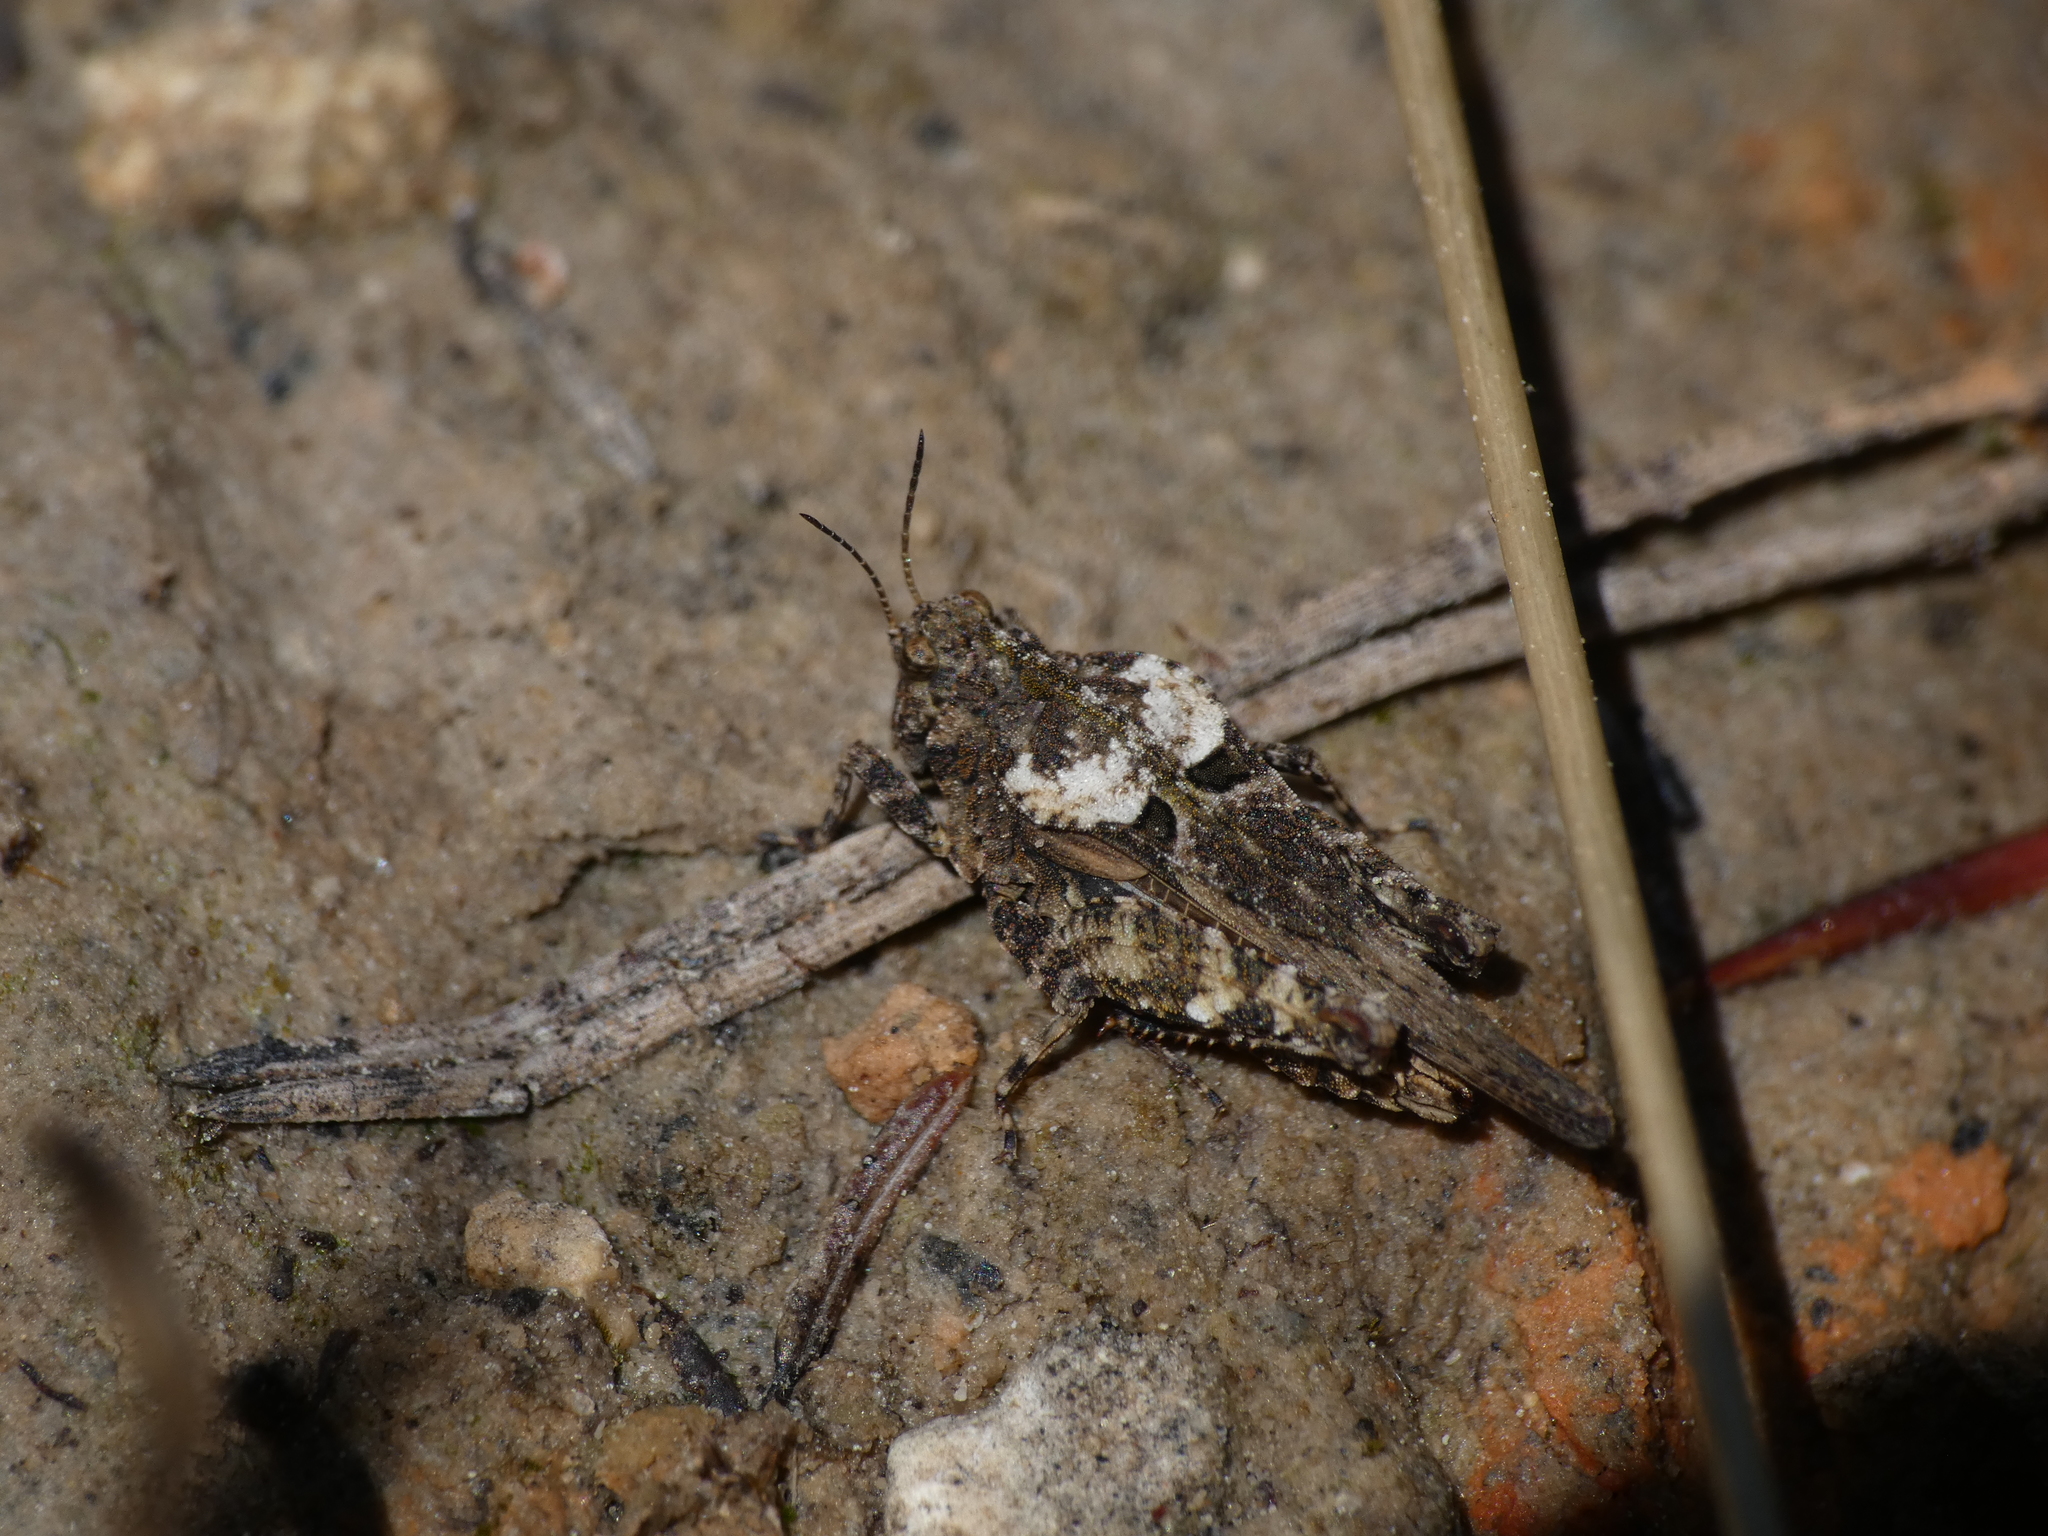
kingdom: Animalia
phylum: Arthropoda
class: Insecta
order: Orthoptera
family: Tetrigidae
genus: Tetrix
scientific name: Tetrix depressa
